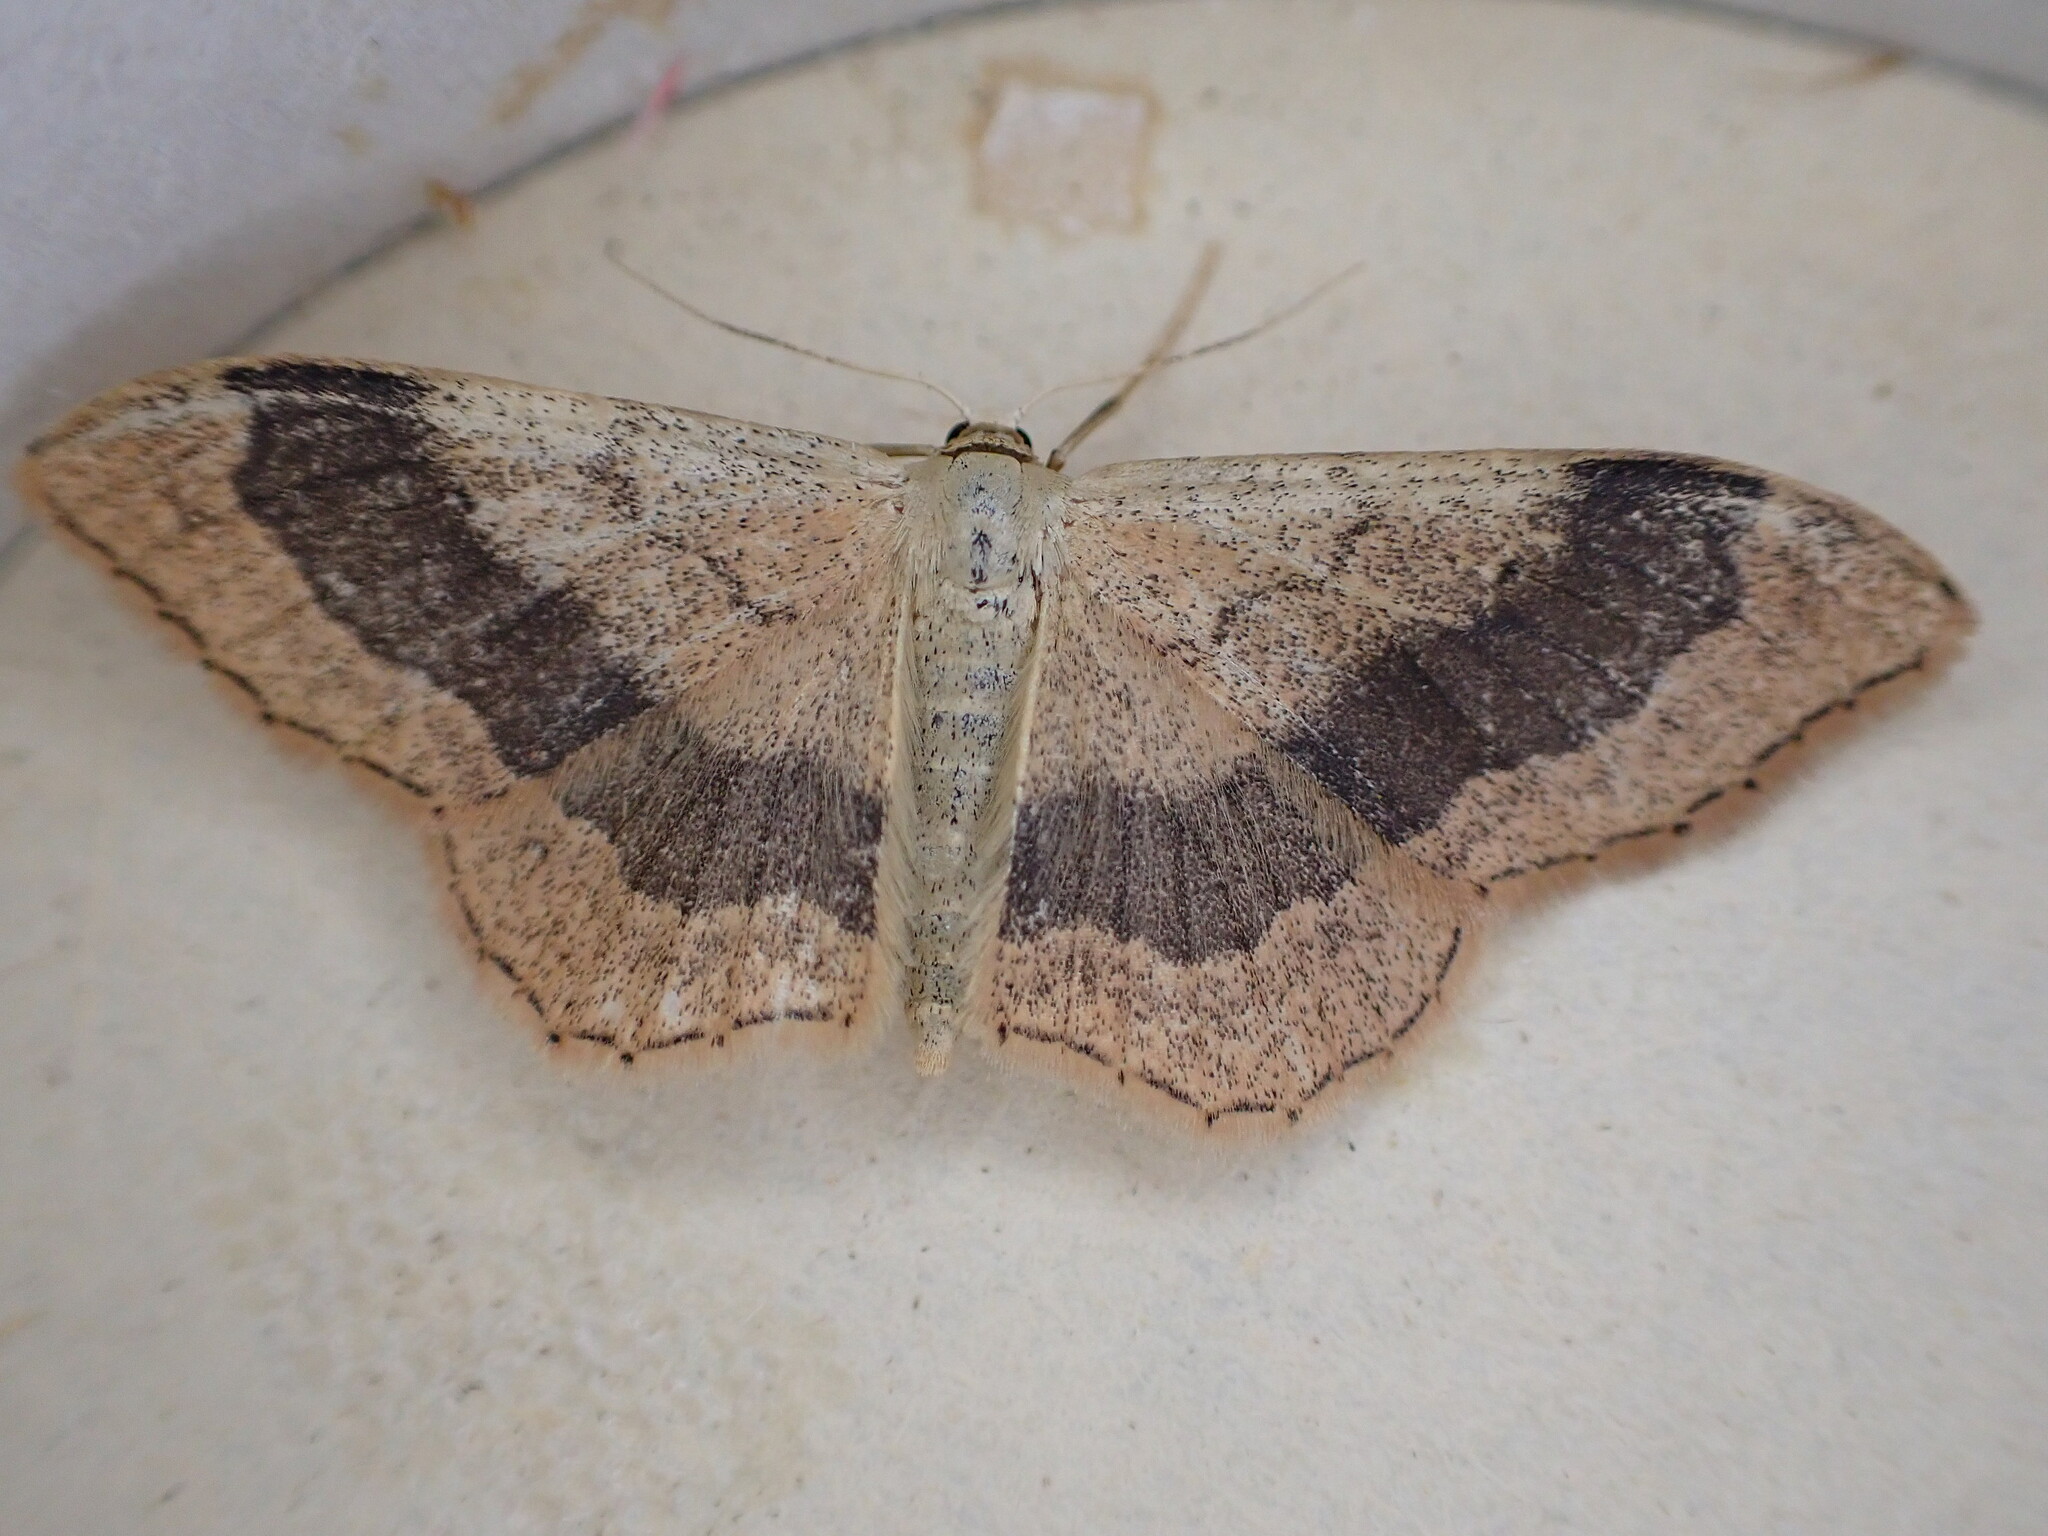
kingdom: Animalia
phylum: Arthropoda
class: Insecta
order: Lepidoptera
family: Geometridae
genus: Idaea
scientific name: Idaea aversata
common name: Riband wave
